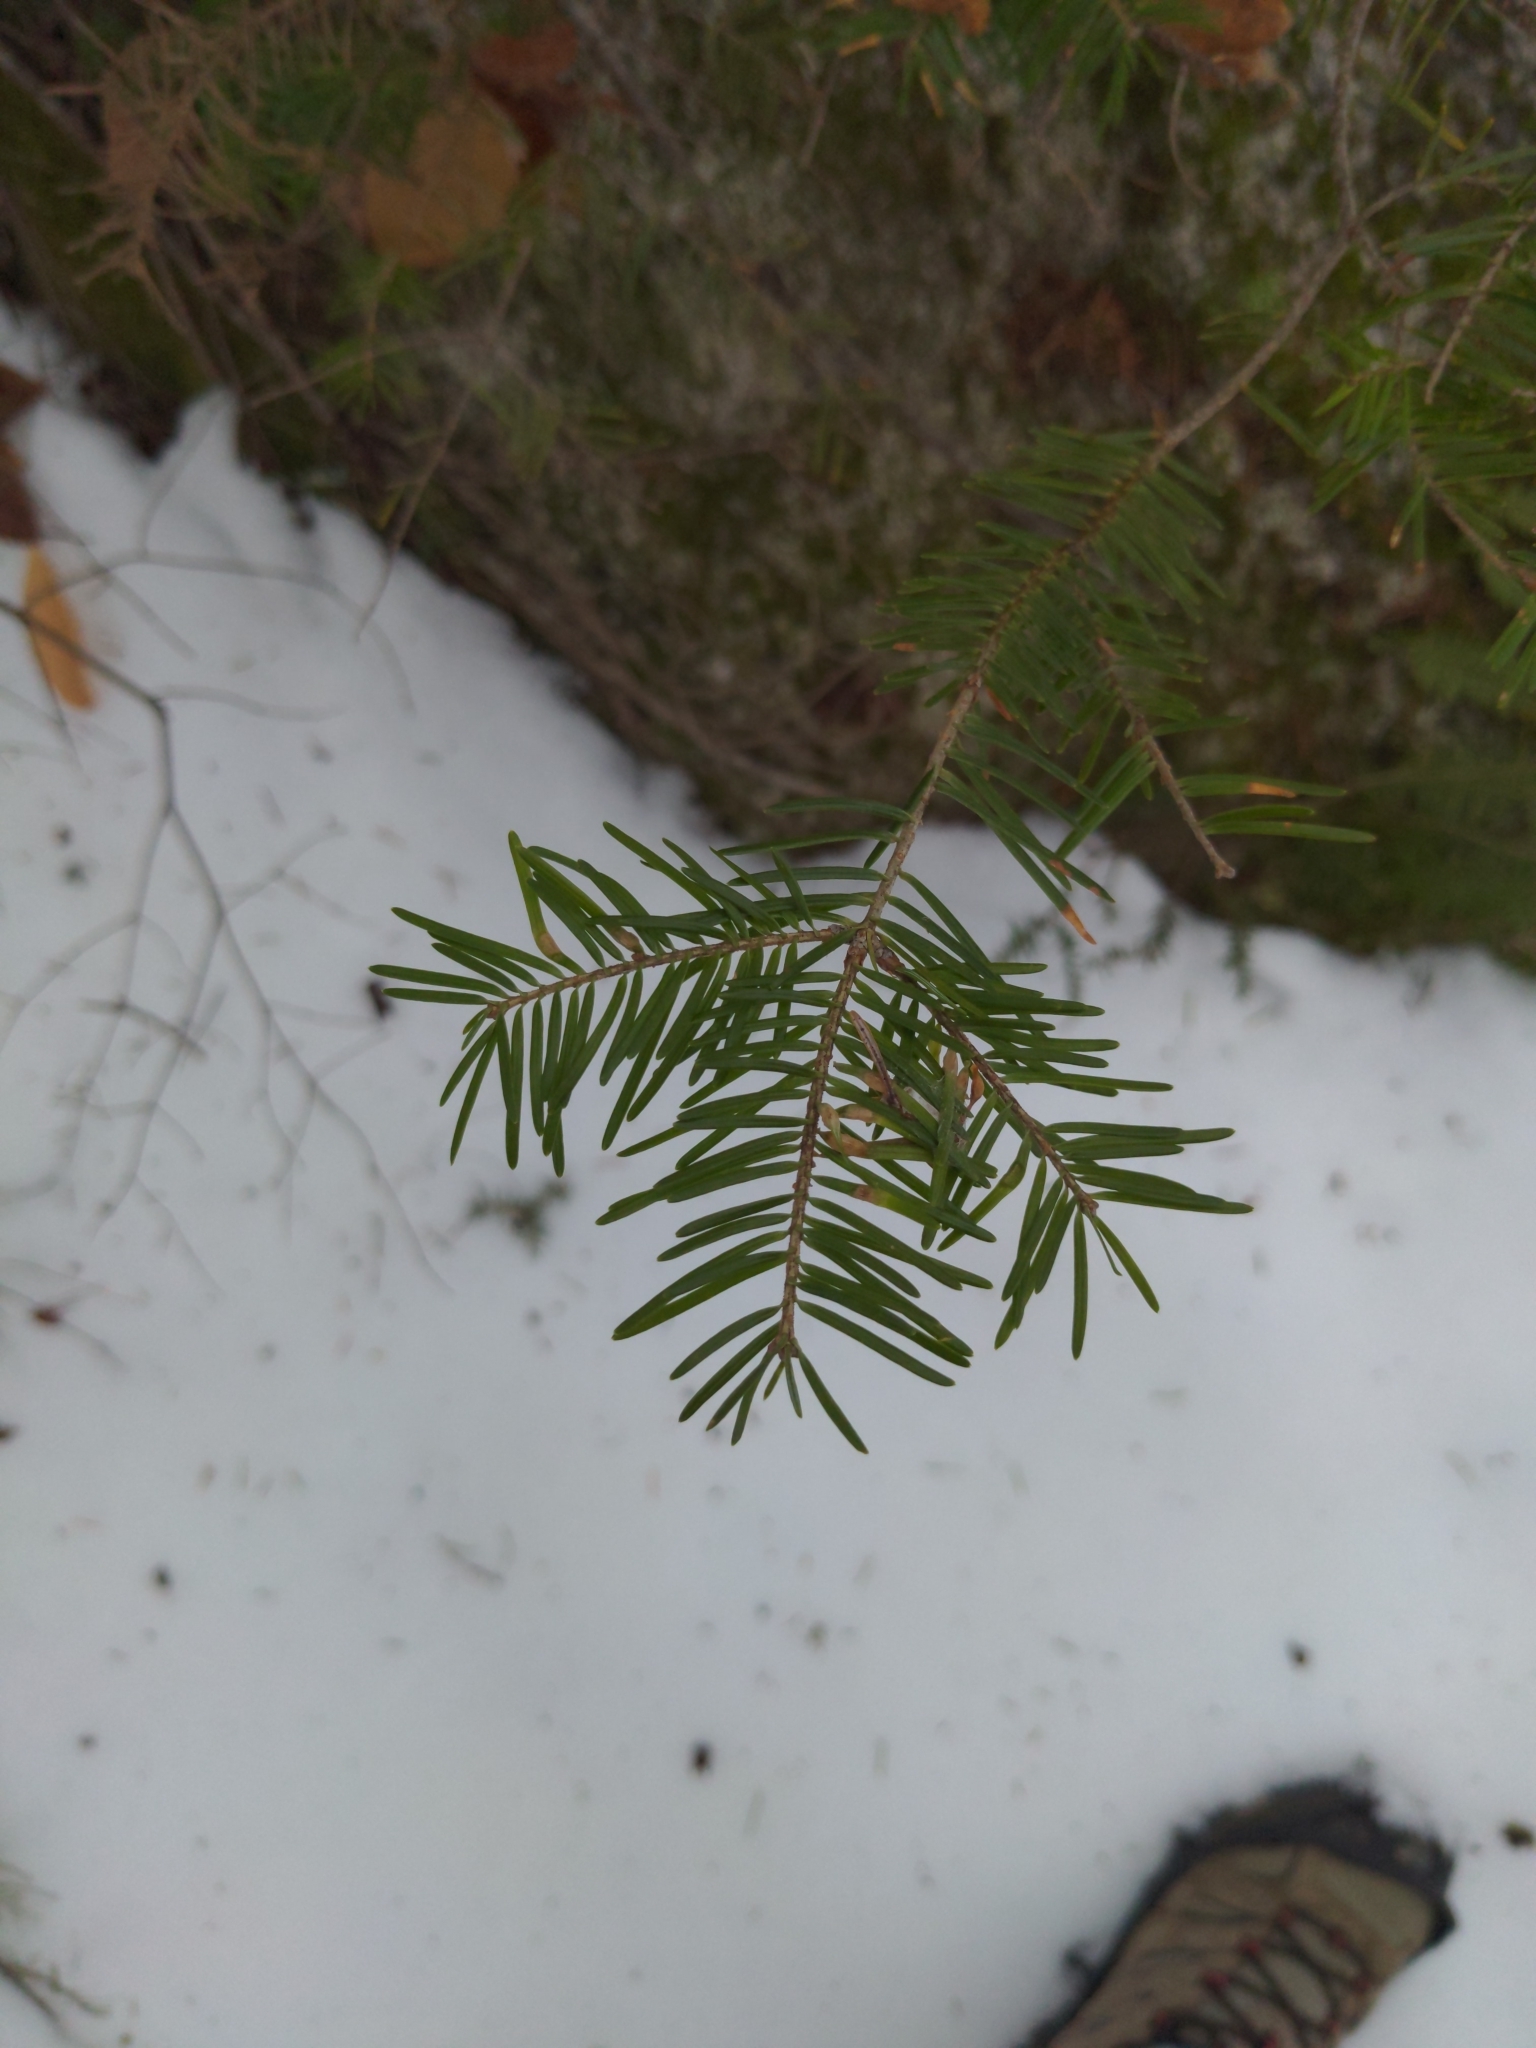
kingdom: Plantae
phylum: Tracheophyta
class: Pinopsida
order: Pinales
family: Pinaceae
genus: Abies
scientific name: Abies balsamea
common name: Balsam fir
